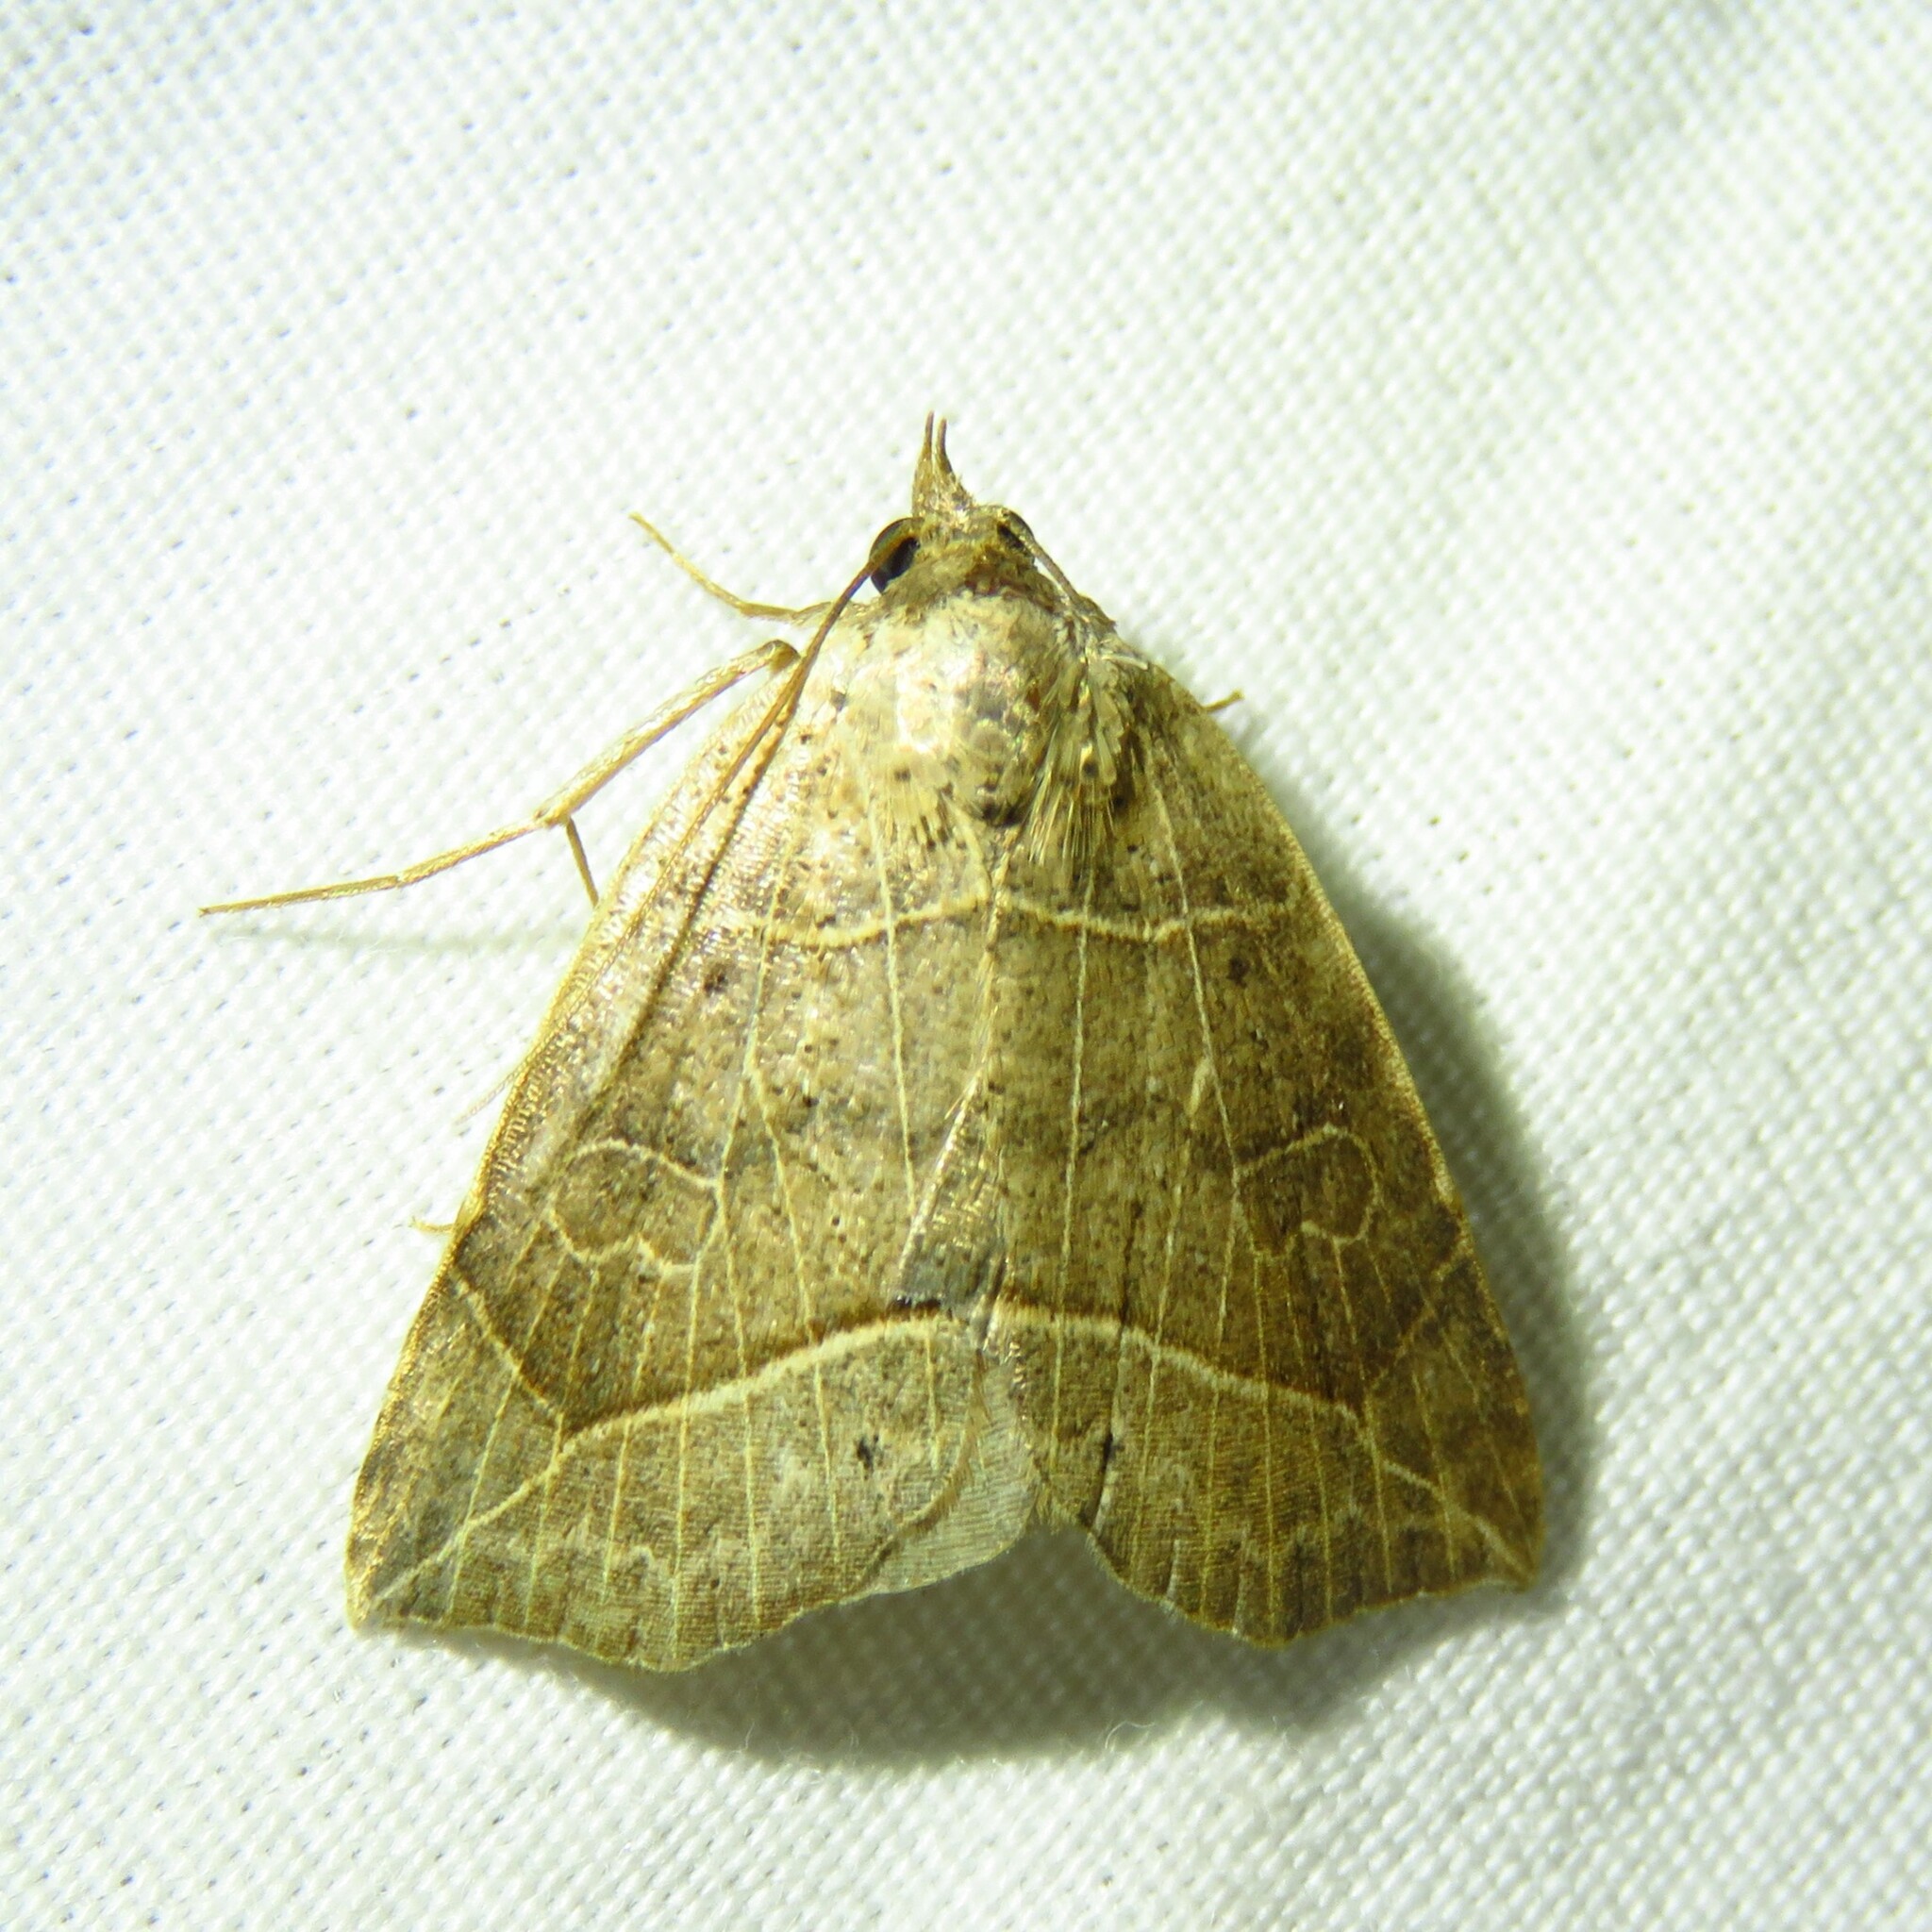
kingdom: Animalia
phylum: Arthropoda
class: Insecta
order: Lepidoptera
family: Erebidae
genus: Isogona
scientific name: Isogona tenuis
